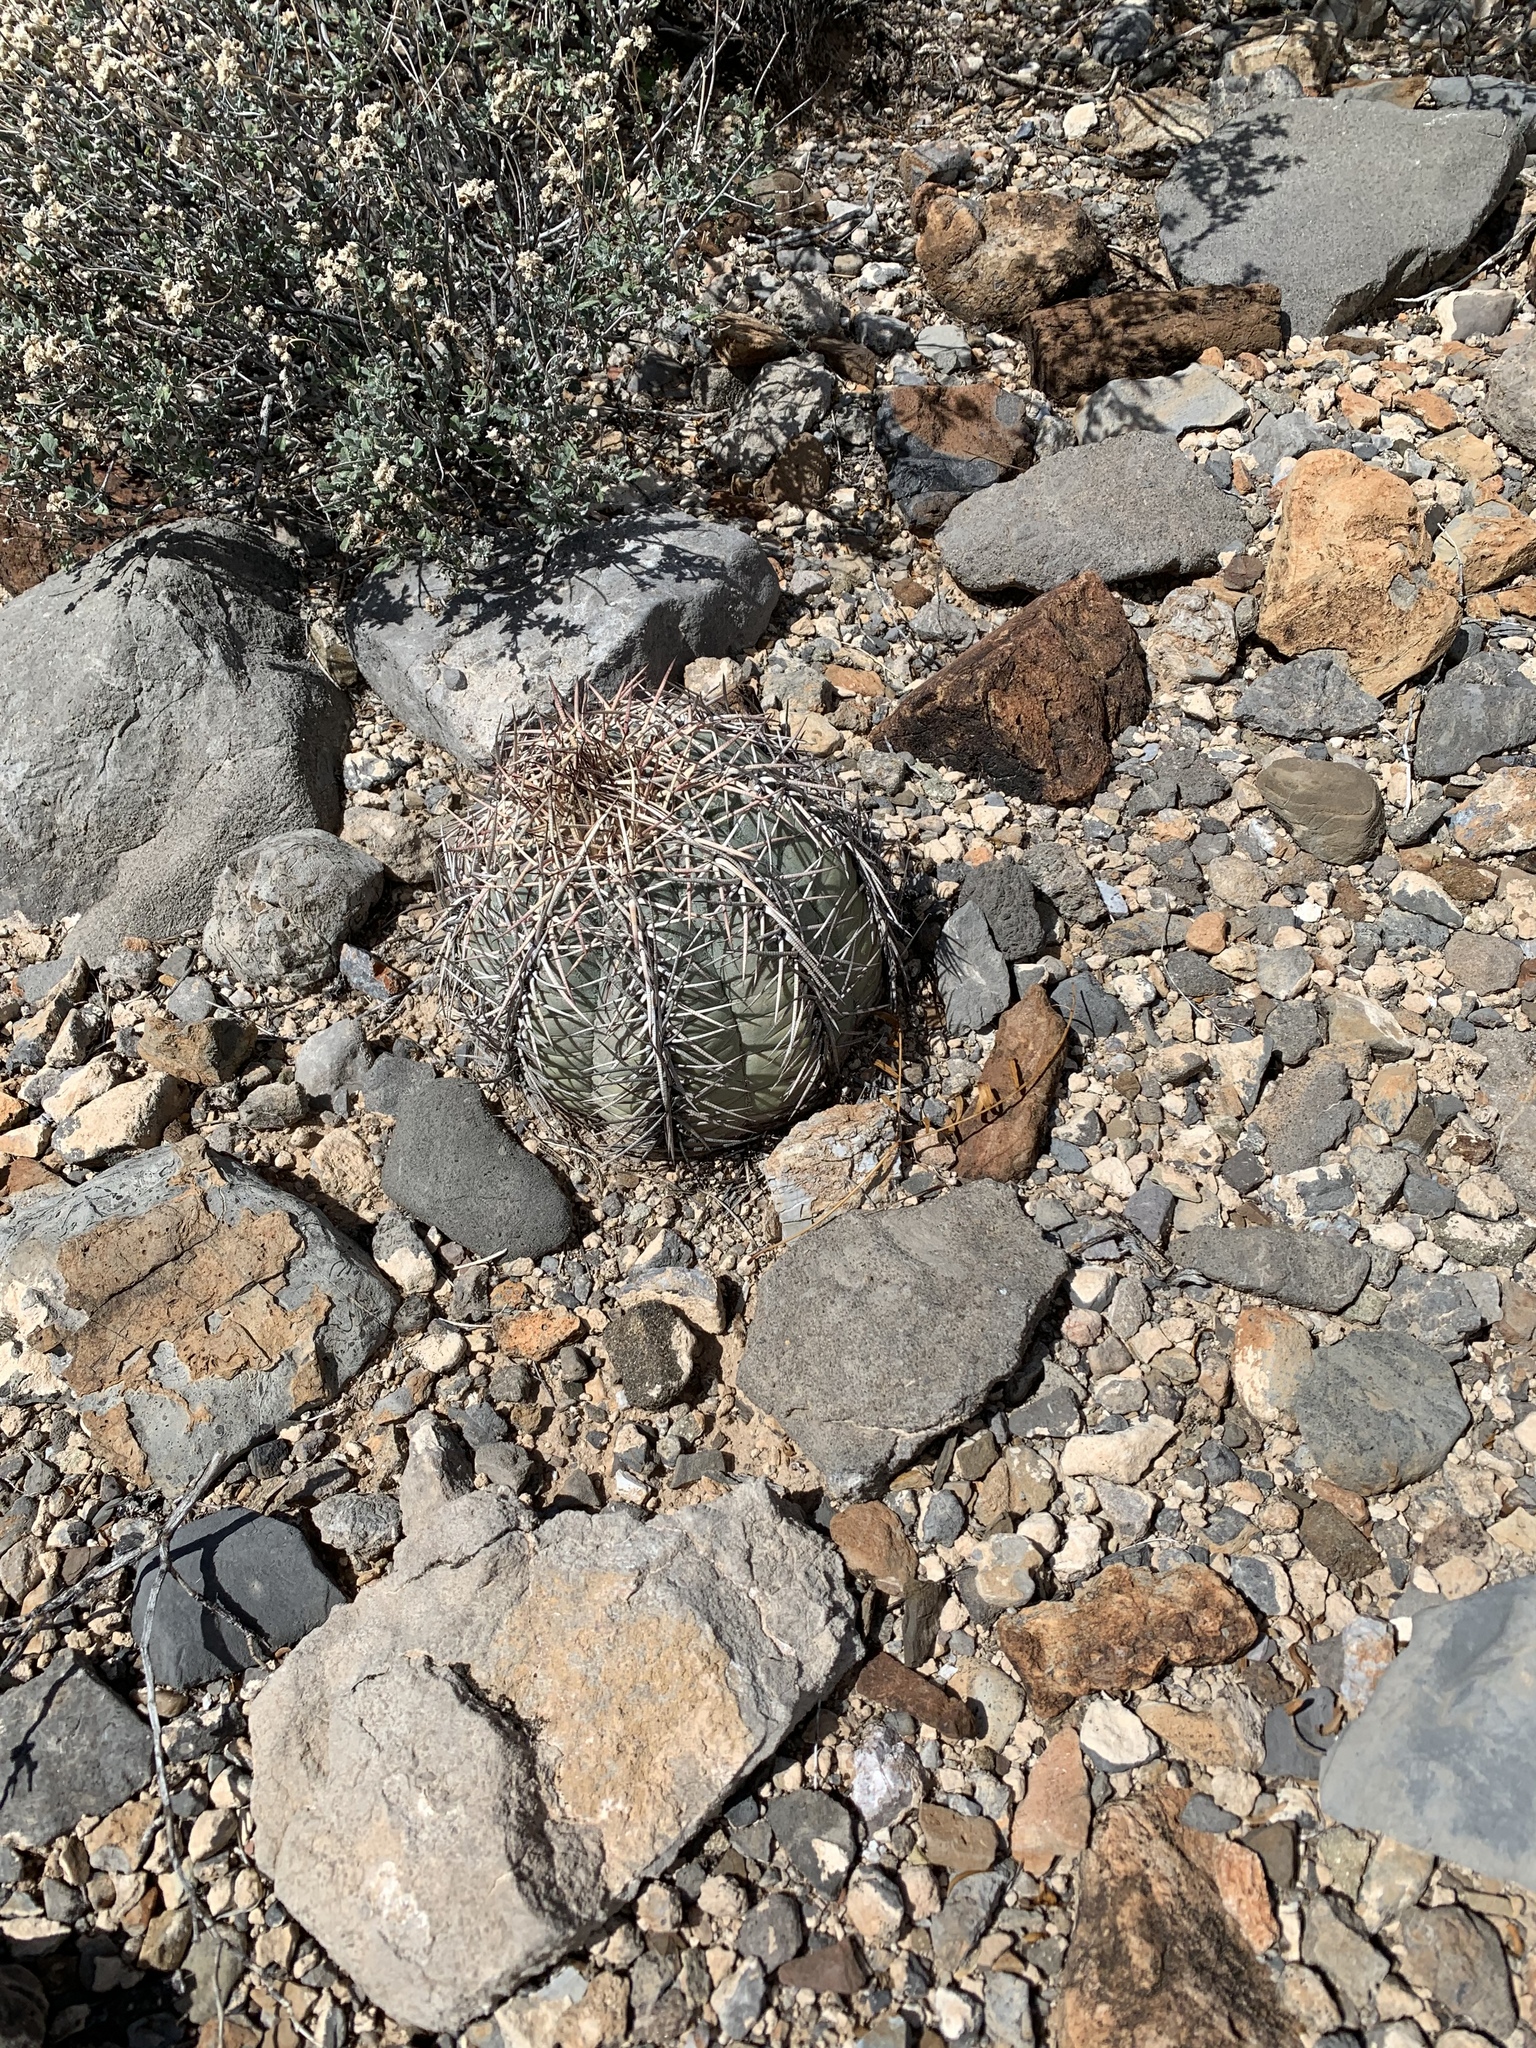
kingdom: Plantae
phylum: Tracheophyta
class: Magnoliopsida
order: Caryophyllales
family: Cactaceae
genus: Echinocactus
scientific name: Echinocactus horizonthalonius
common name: Devilshead
